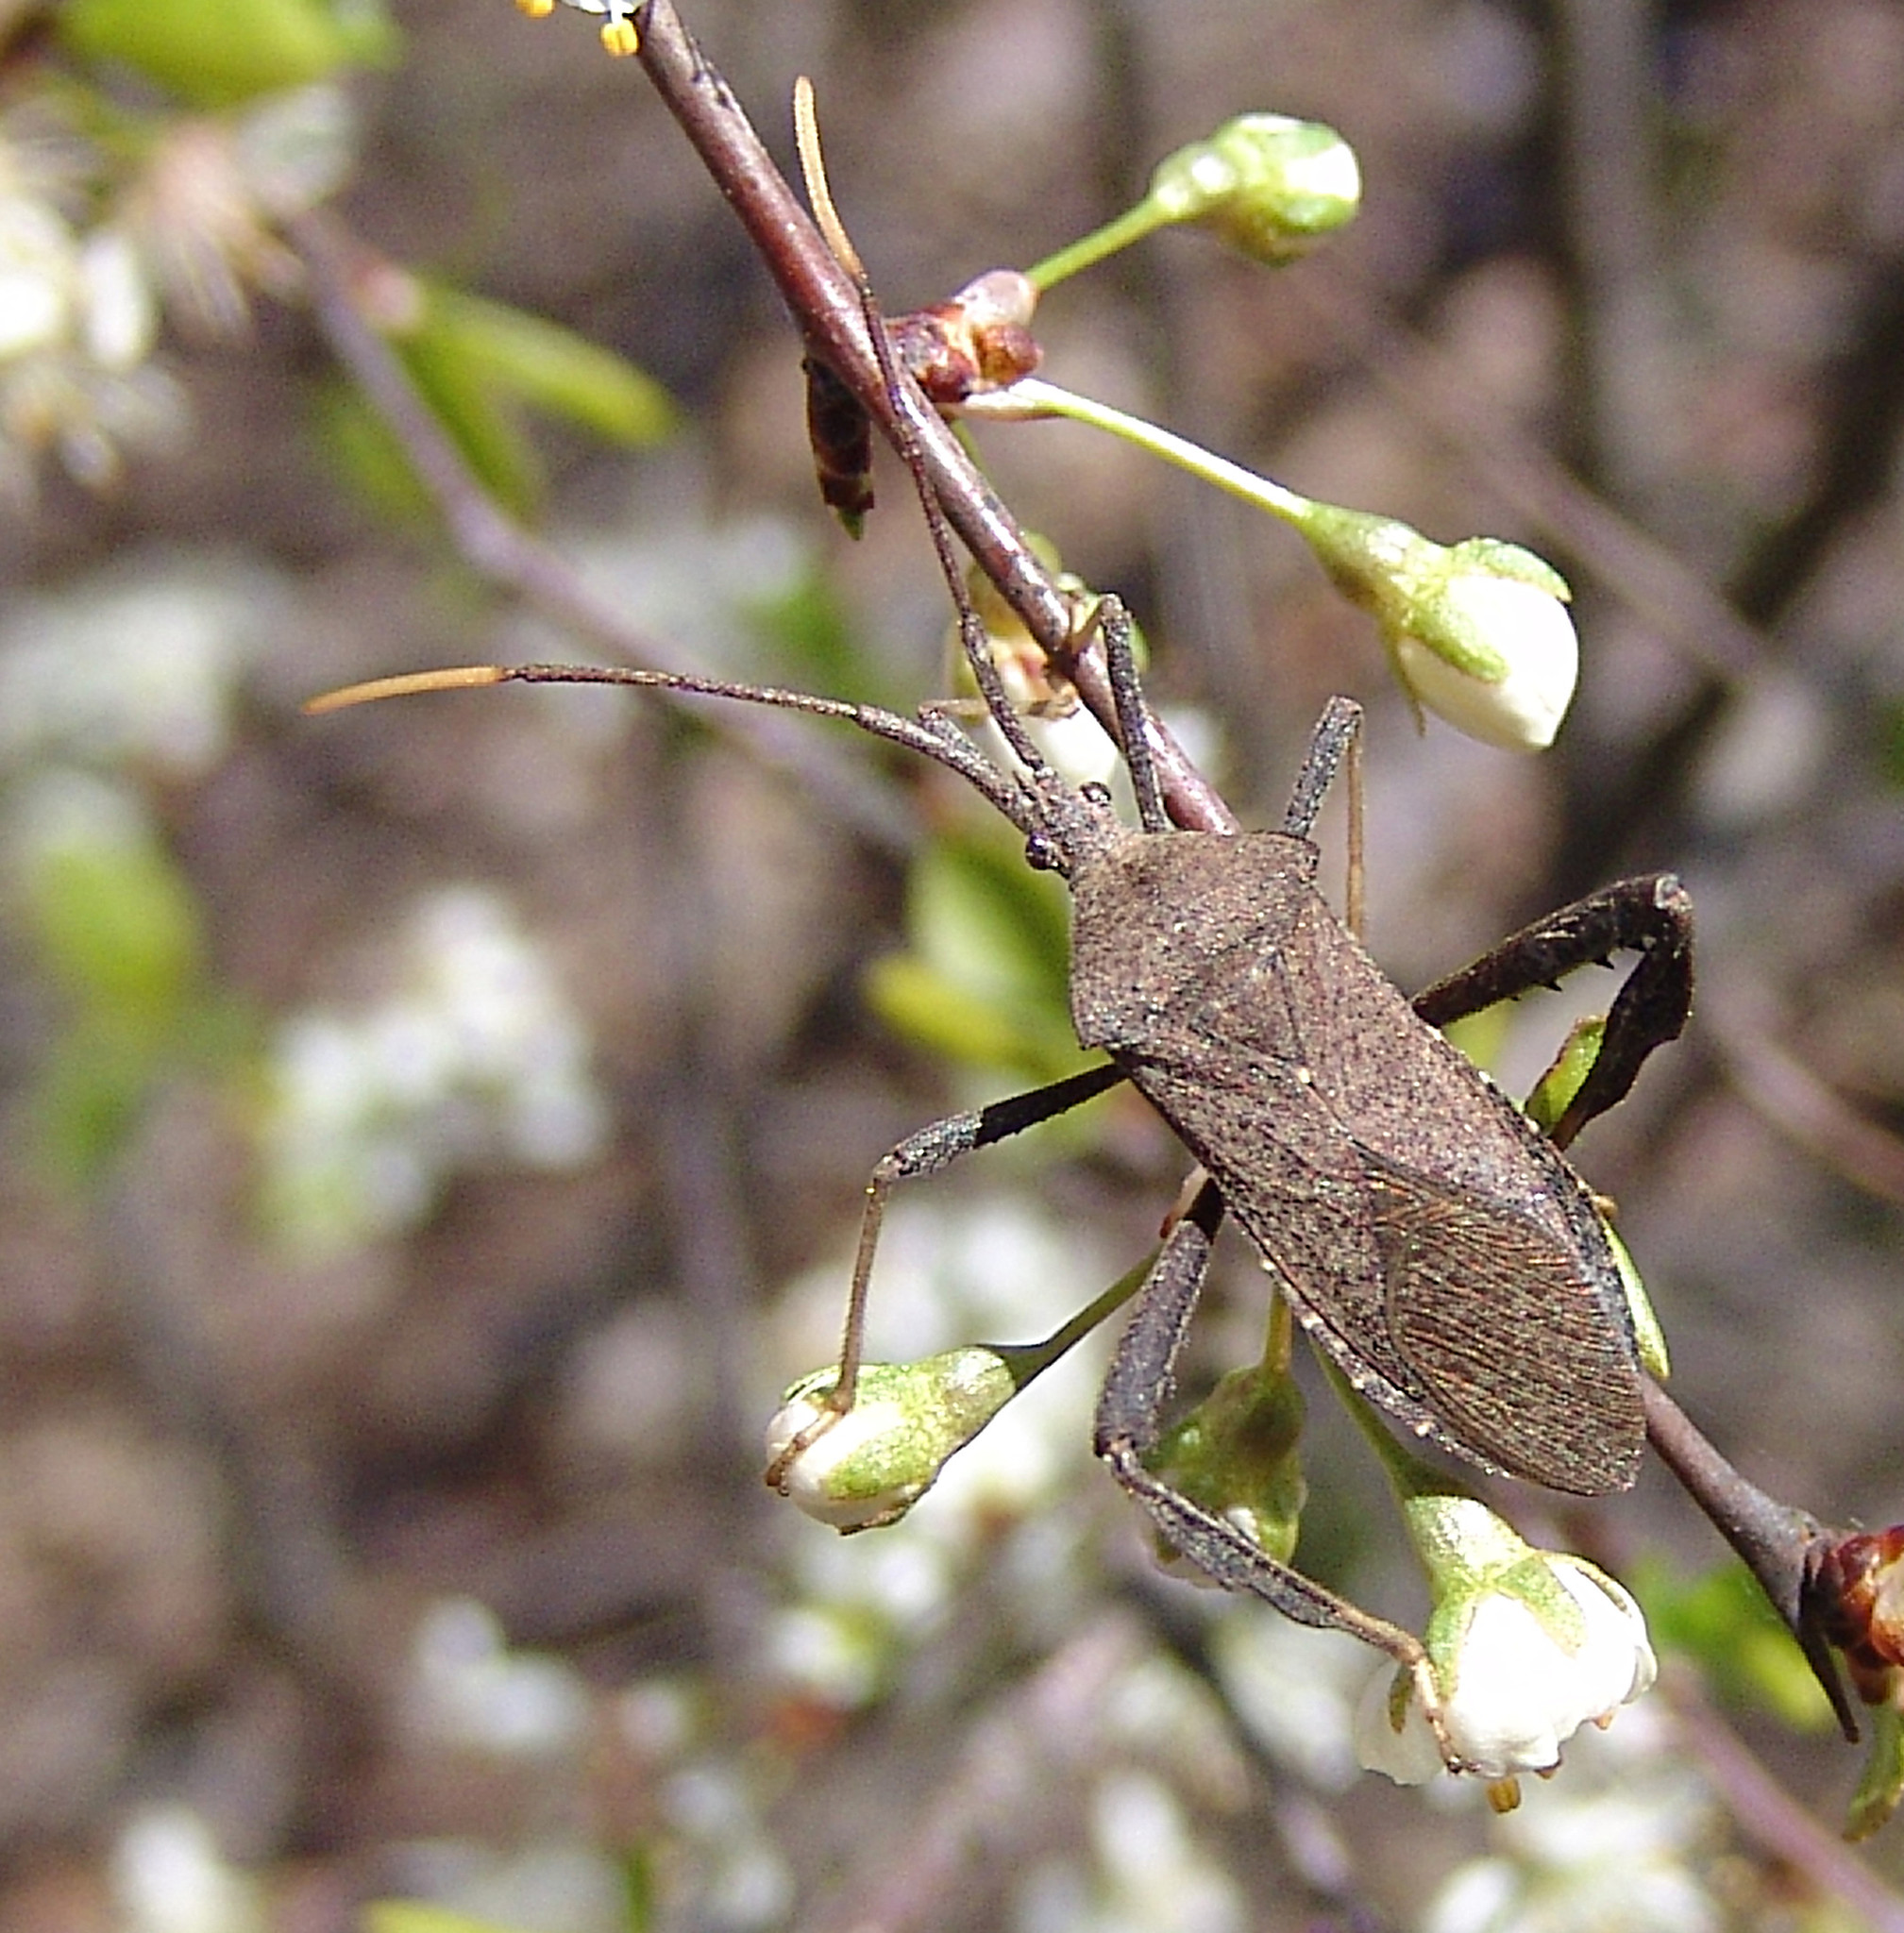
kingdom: Animalia
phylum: Arthropoda
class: Insecta
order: Hemiptera
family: Coreidae
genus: Acanthocephala
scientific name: Acanthocephala terminalis
